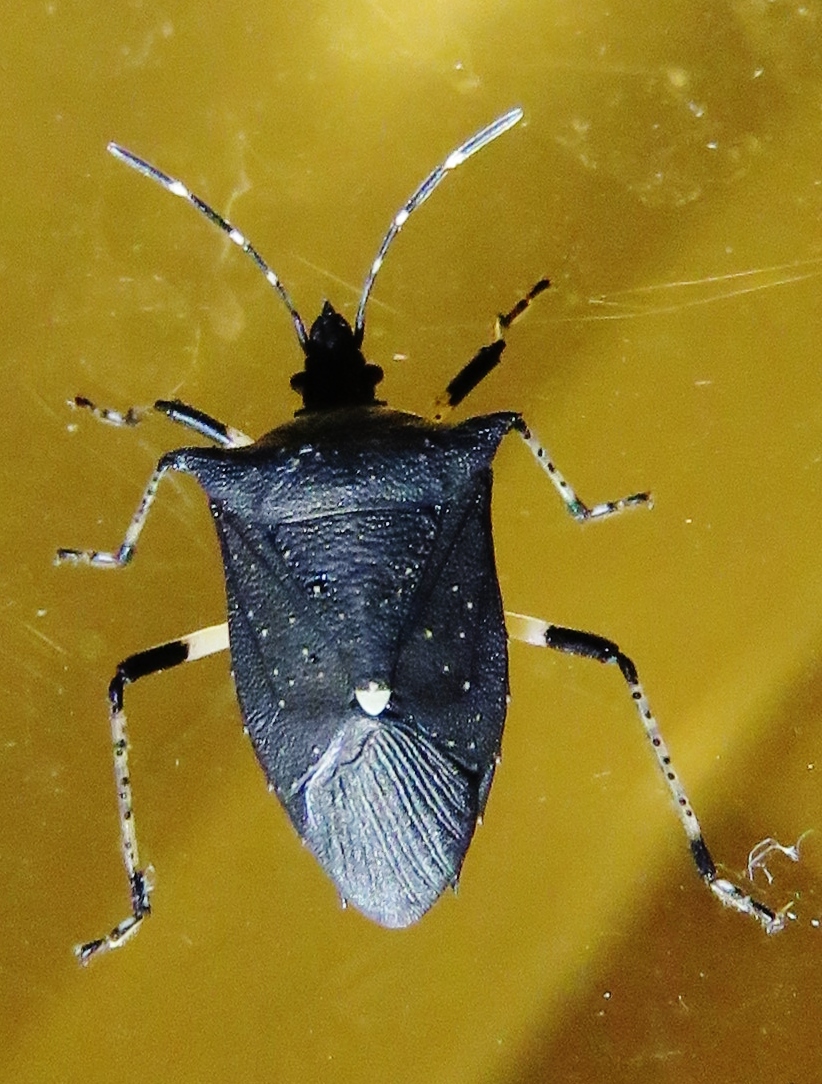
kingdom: Animalia
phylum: Arthropoda
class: Insecta
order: Hemiptera
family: Pentatomidae
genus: Proxys
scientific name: Proxys punctulatus
